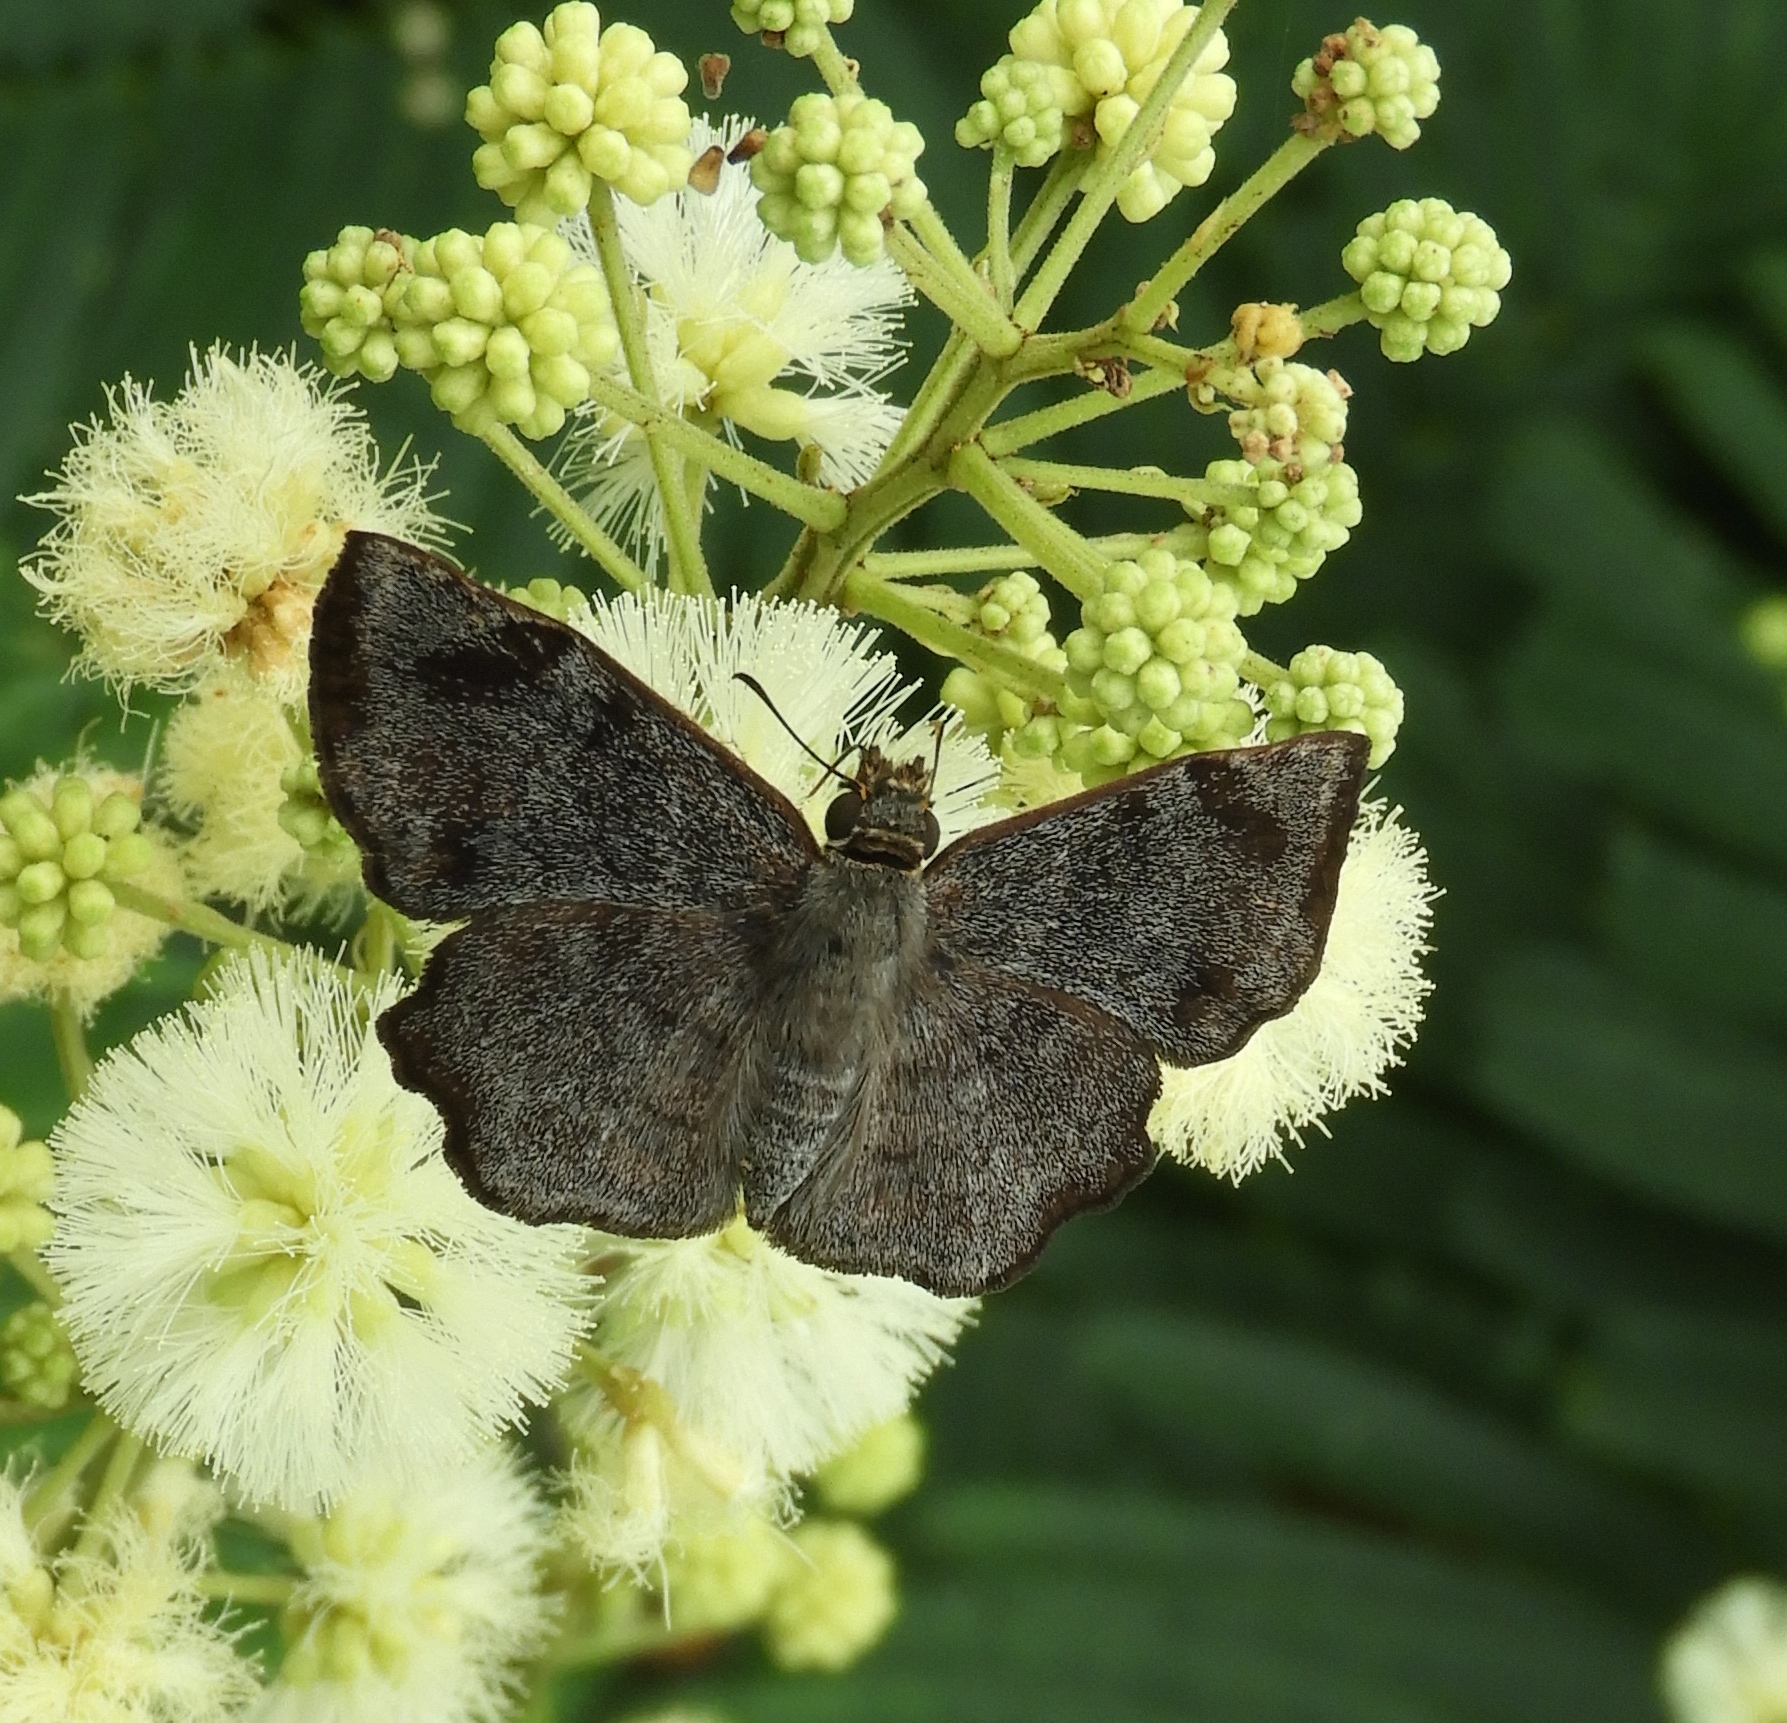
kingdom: Animalia
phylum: Arthropoda
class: Insecta
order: Lepidoptera
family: Hesperiidae
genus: Antigonus
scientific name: Antigonus erosus
